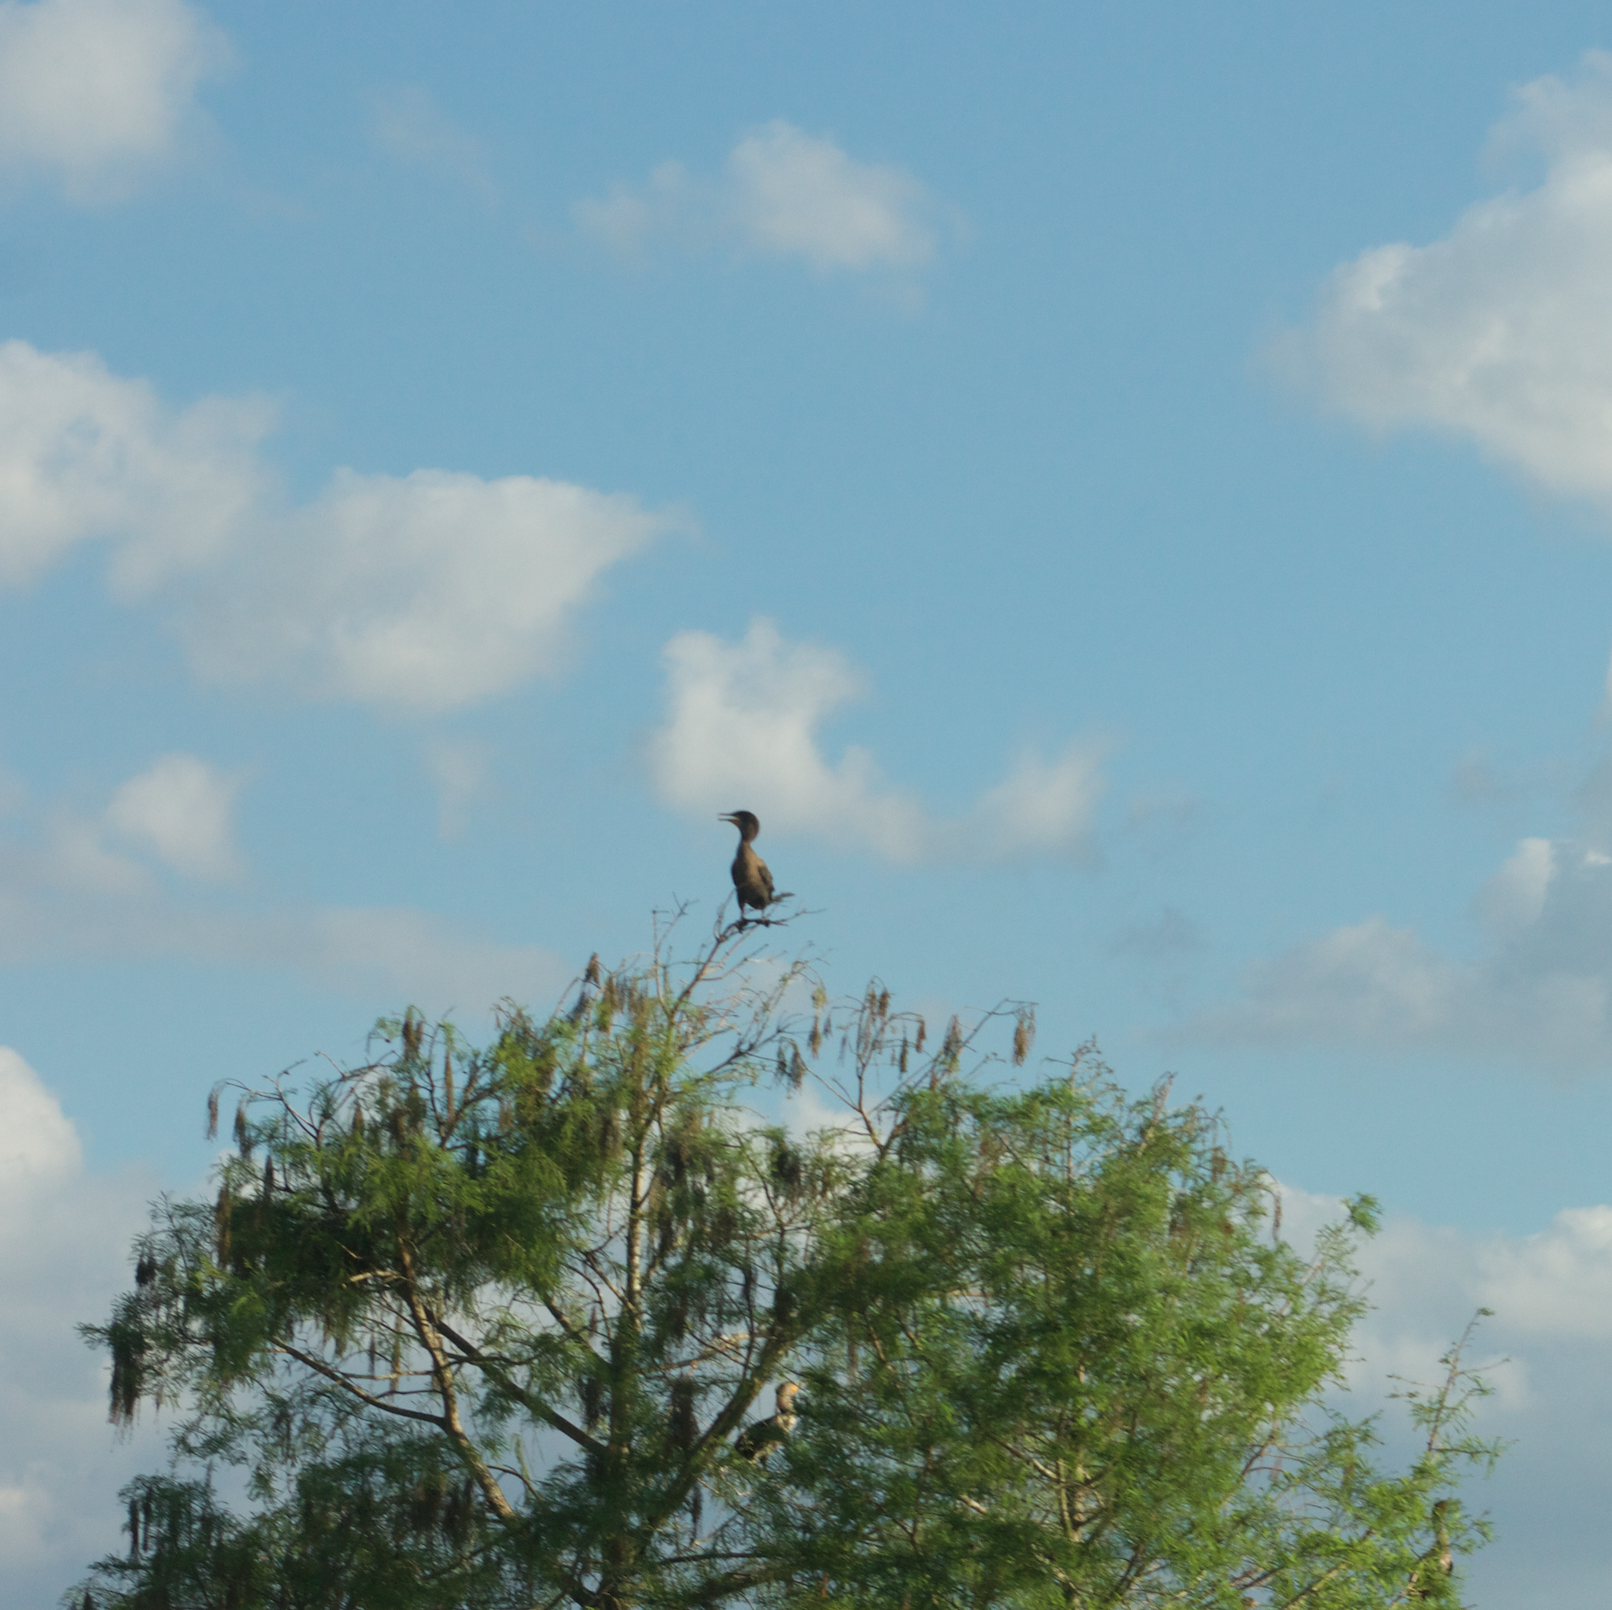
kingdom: Animalia
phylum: Chordata
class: Aves
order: Suliformes
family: Phalacrocoracidae
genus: Phalacrocorax
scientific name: Phalacrocorax auritus
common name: Double-crested cormorant
